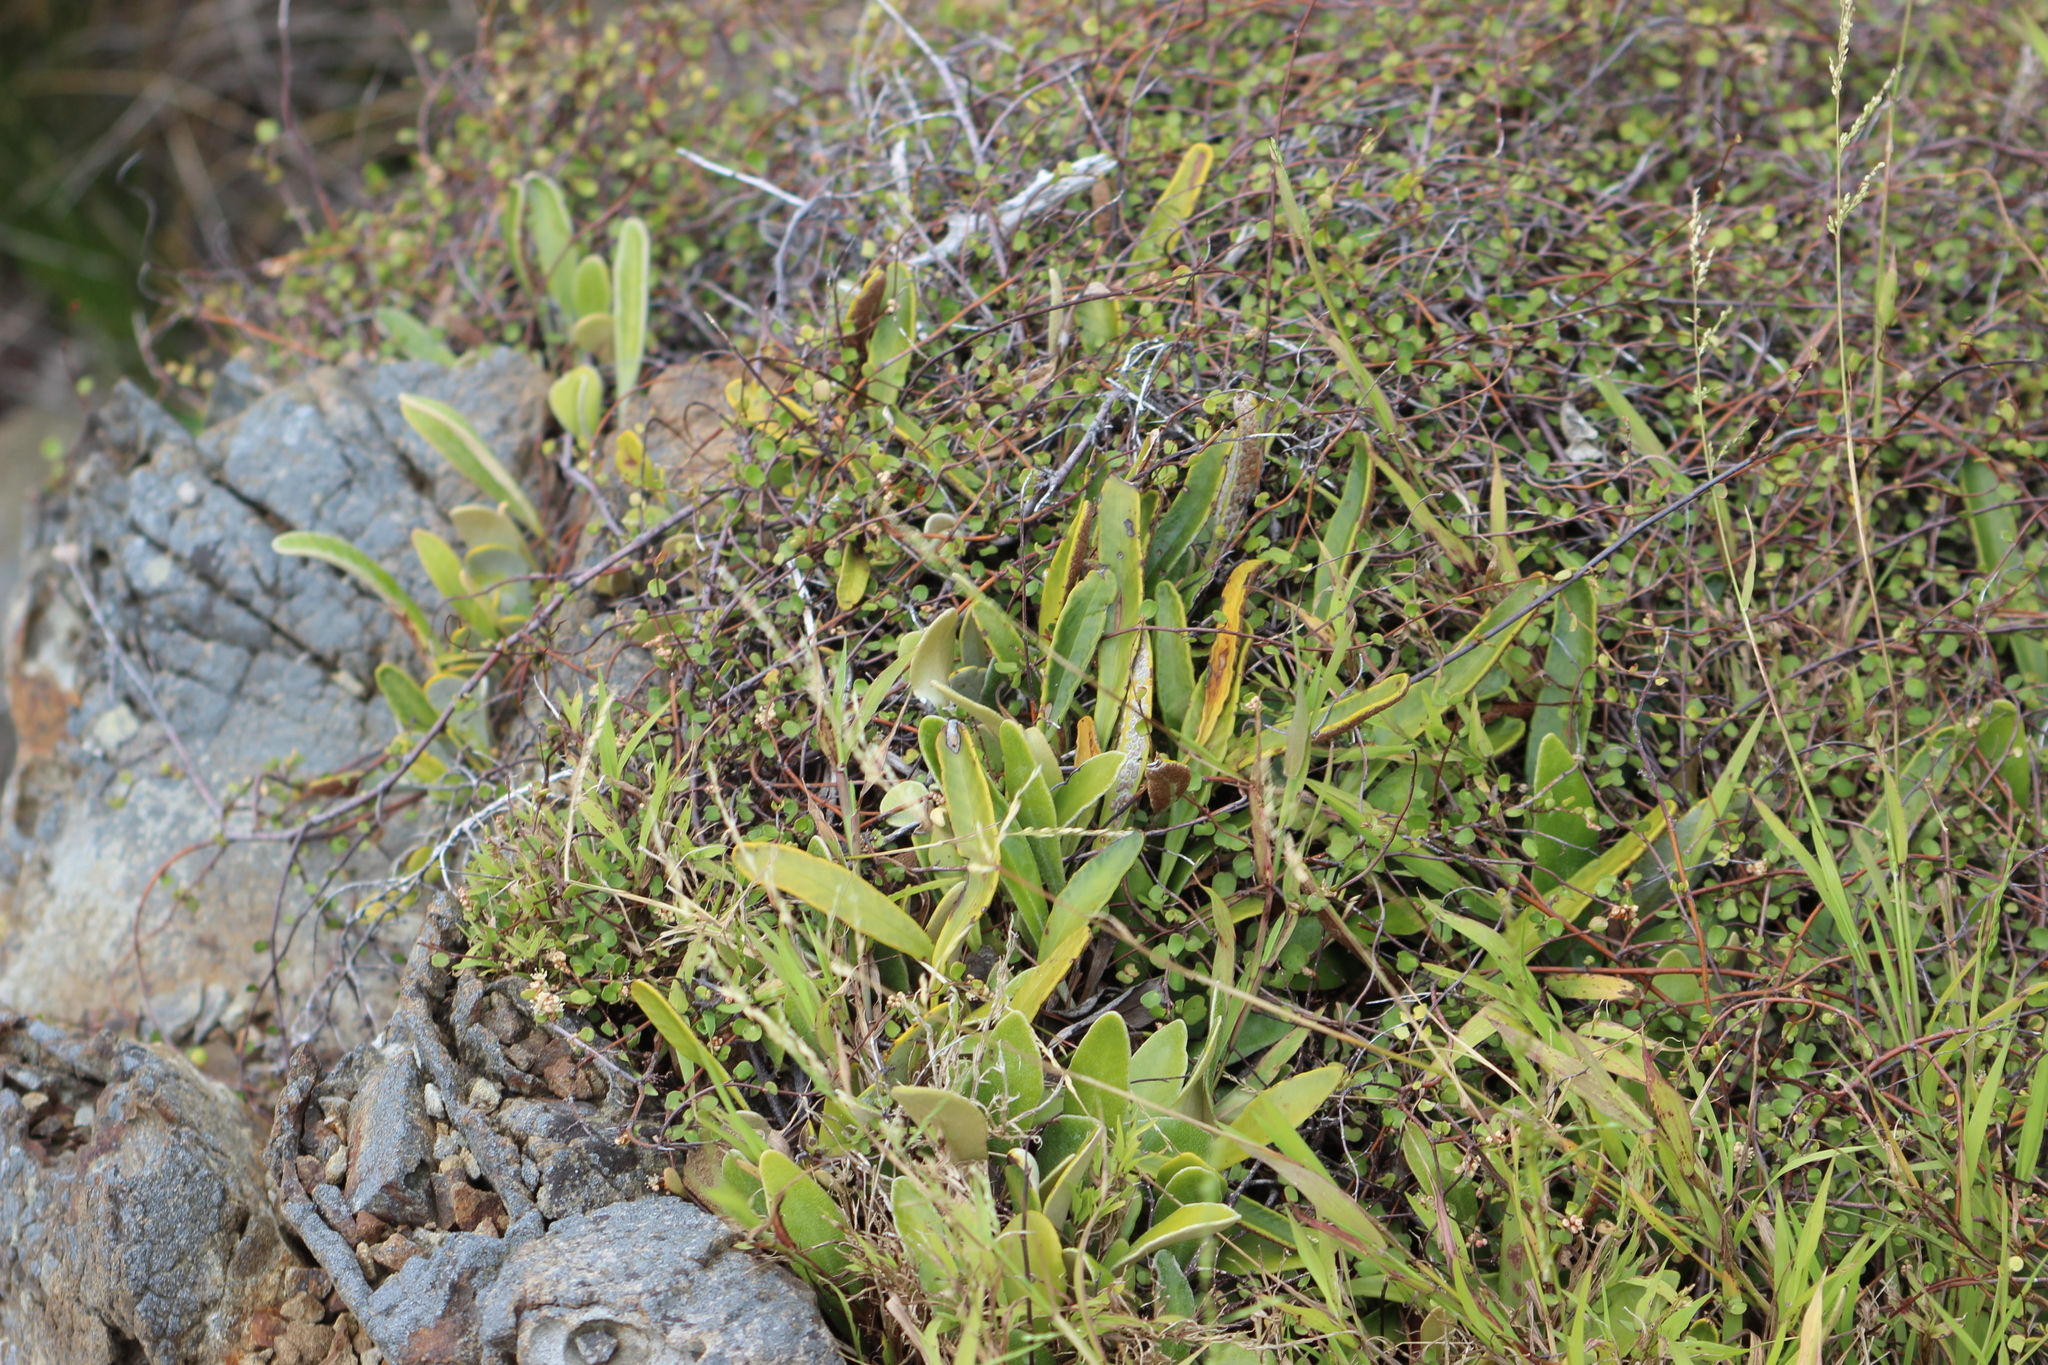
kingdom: Plantae
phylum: Tracheophyta
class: Polypodiopsida
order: Polypodiales
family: Polypodiaceae
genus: Pyrrosia
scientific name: Pyrrosia eleagnifolia
